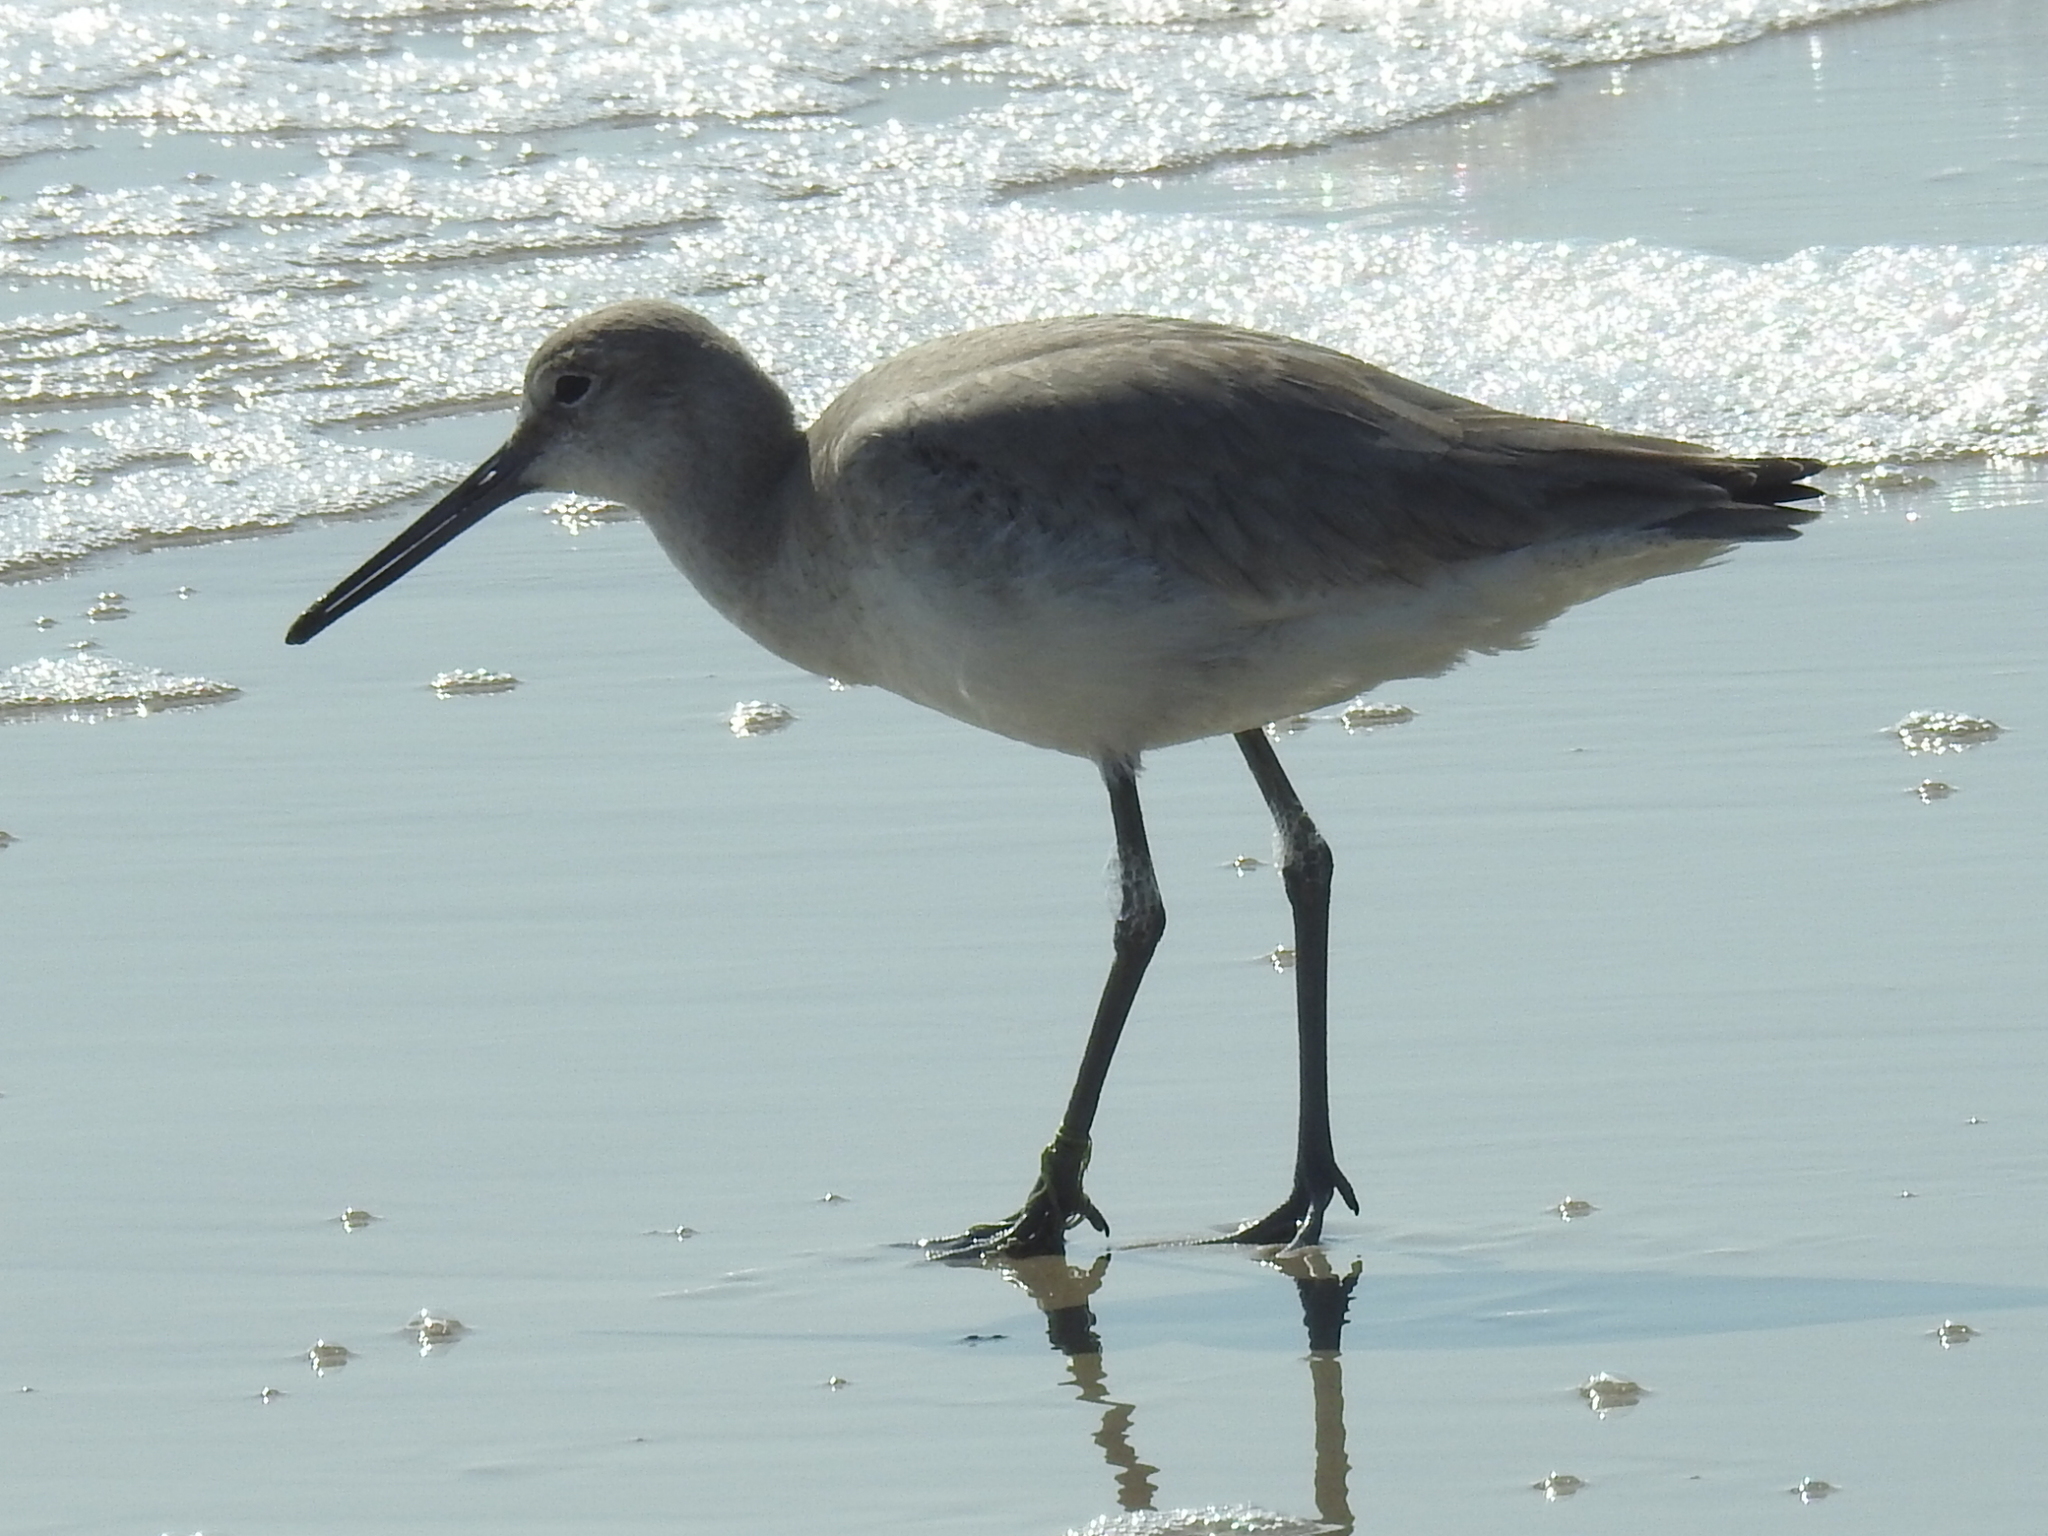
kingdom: Animalia
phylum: Chordata
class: Aves
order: Charadriiformes
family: Scolopacidae
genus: Tringa
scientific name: Tringa semipalmata
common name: Willet
